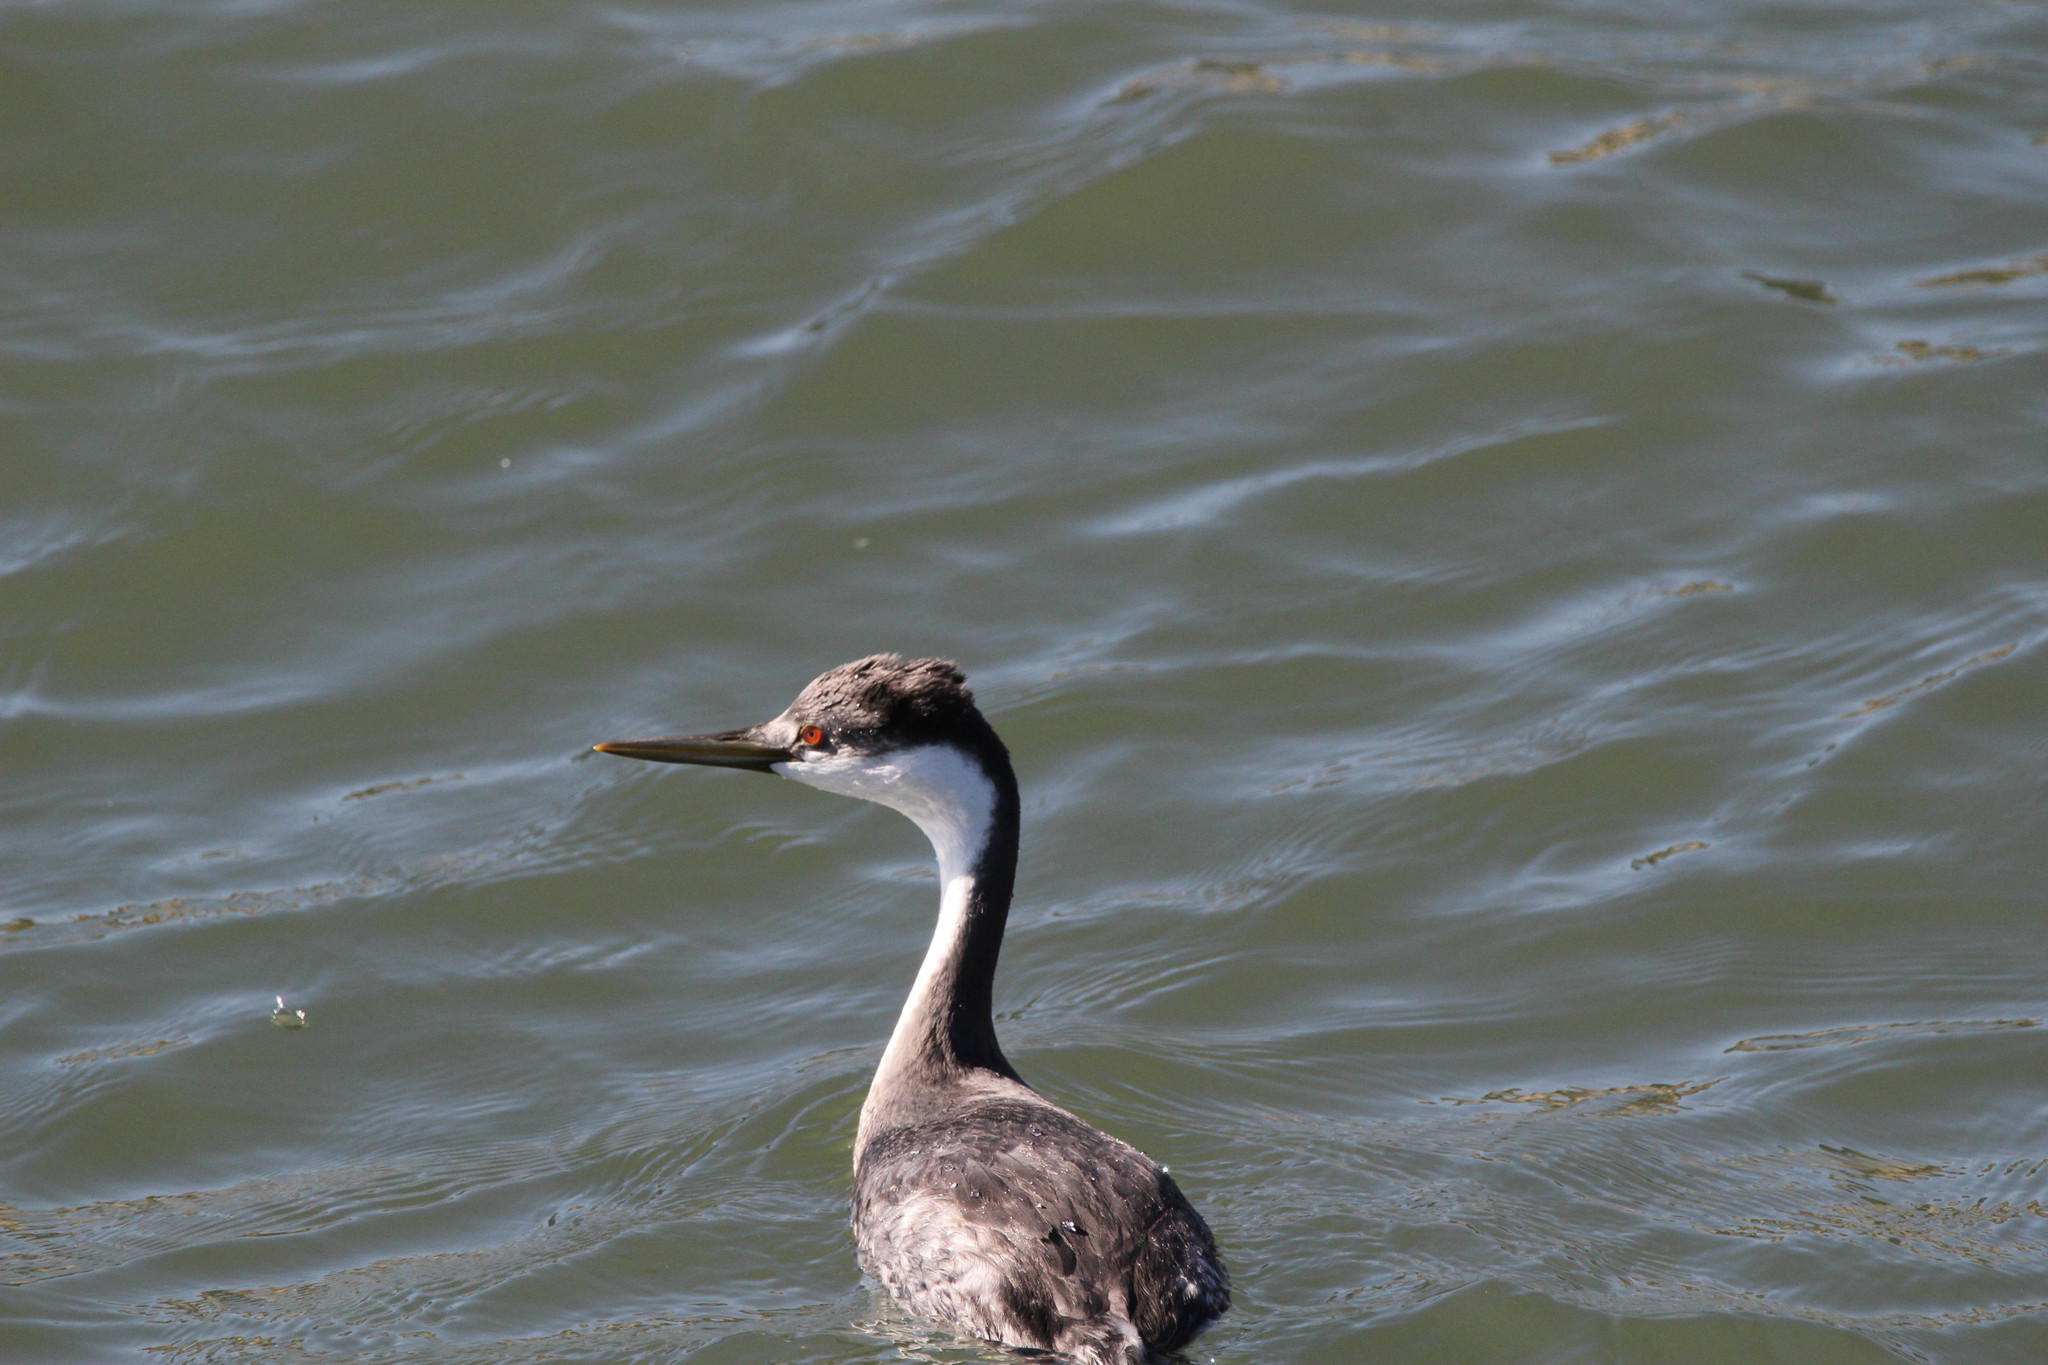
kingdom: Animalia
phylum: Chordata
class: Aves
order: Podicipediformes
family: Podicipedidae
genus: Aechmophorus
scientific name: Aechmophorus occidentalis
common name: Western grebe
